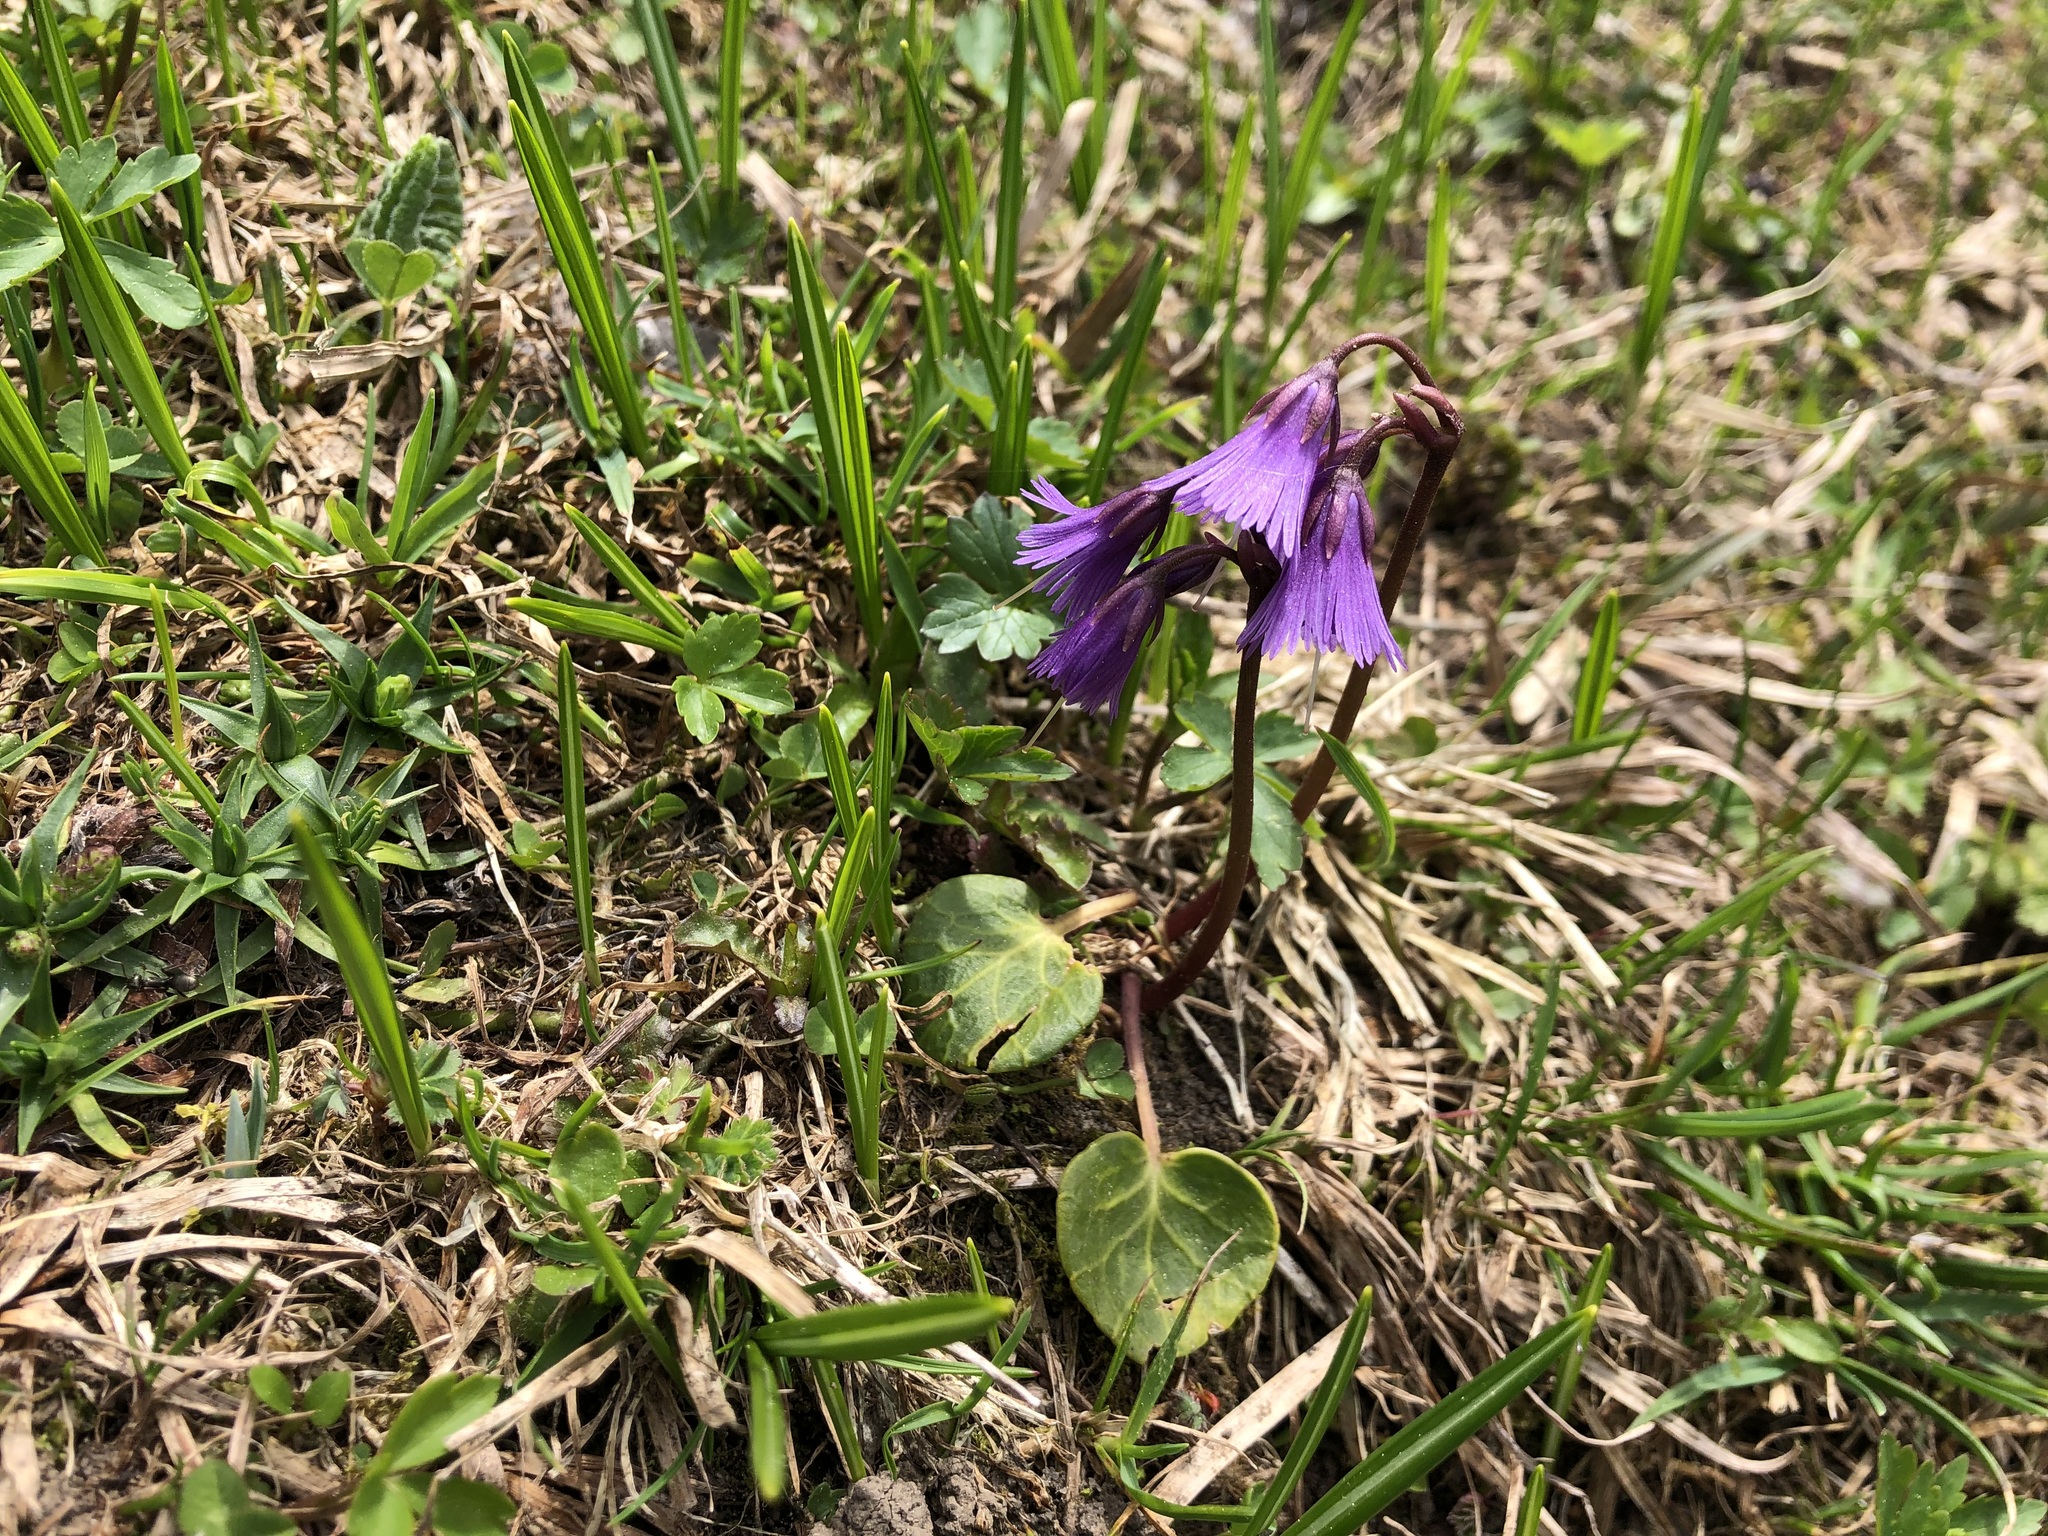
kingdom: Plantae
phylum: Tracheophyta
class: Magnoliopsida
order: Ericales
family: Primulaceae
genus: Soldanella
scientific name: Soldanella alpina
